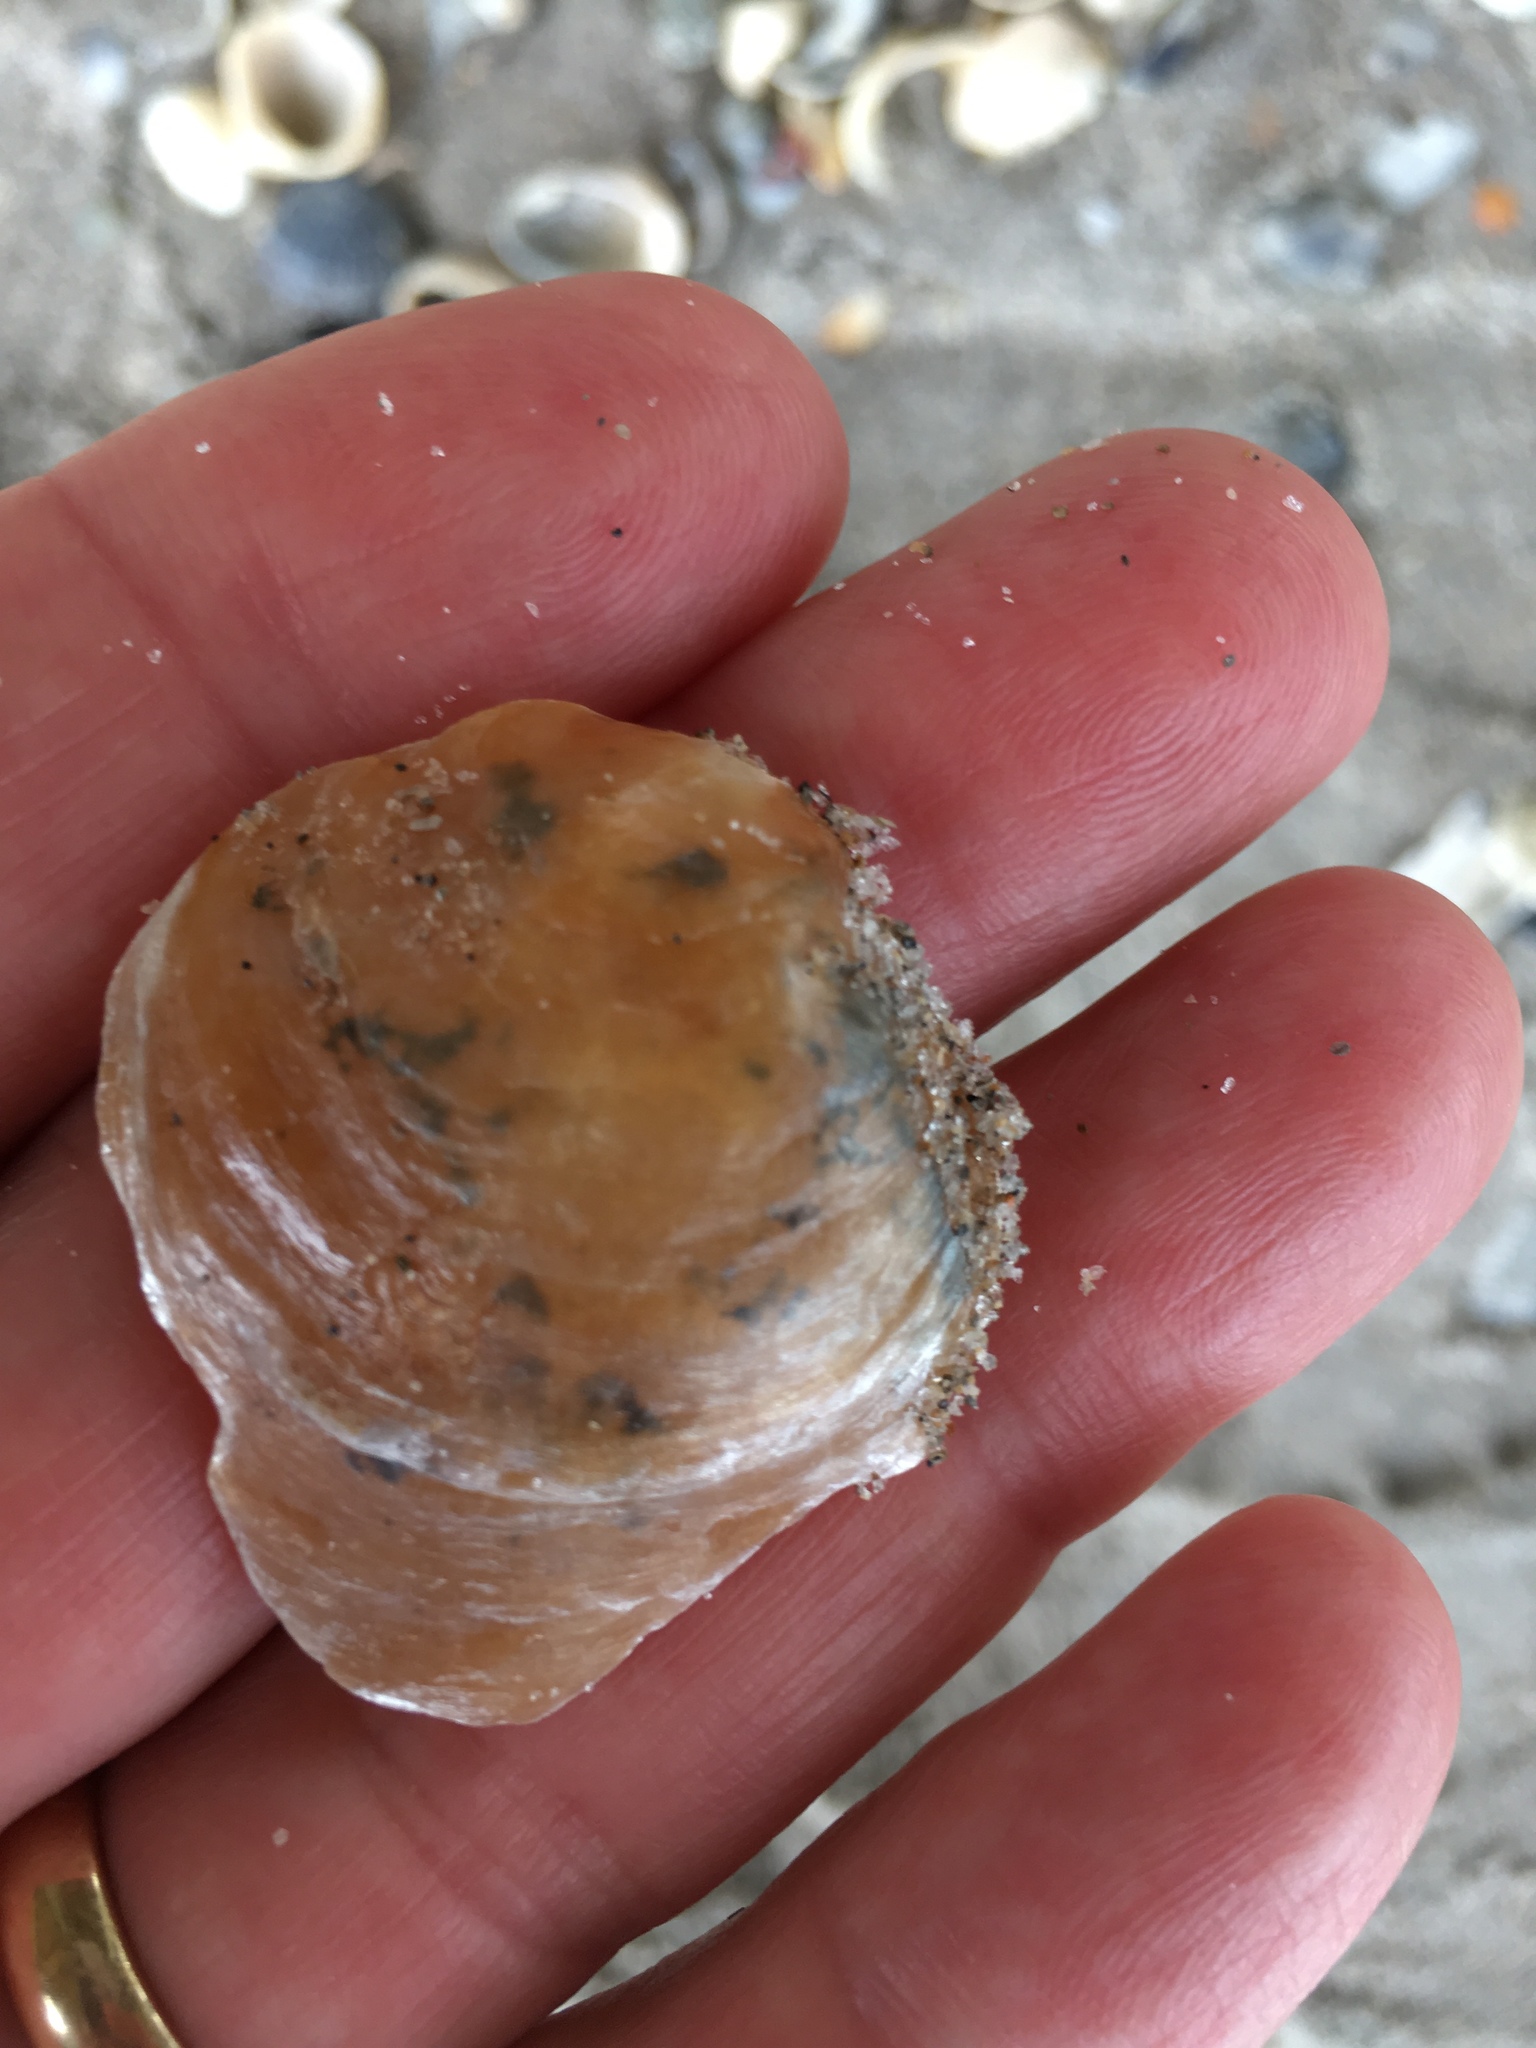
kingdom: Animalia
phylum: Mollusca
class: Bivalvia
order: Pectinida
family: Anomiidae
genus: Anomia
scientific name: Anomia simplex
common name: Common jingle shell
